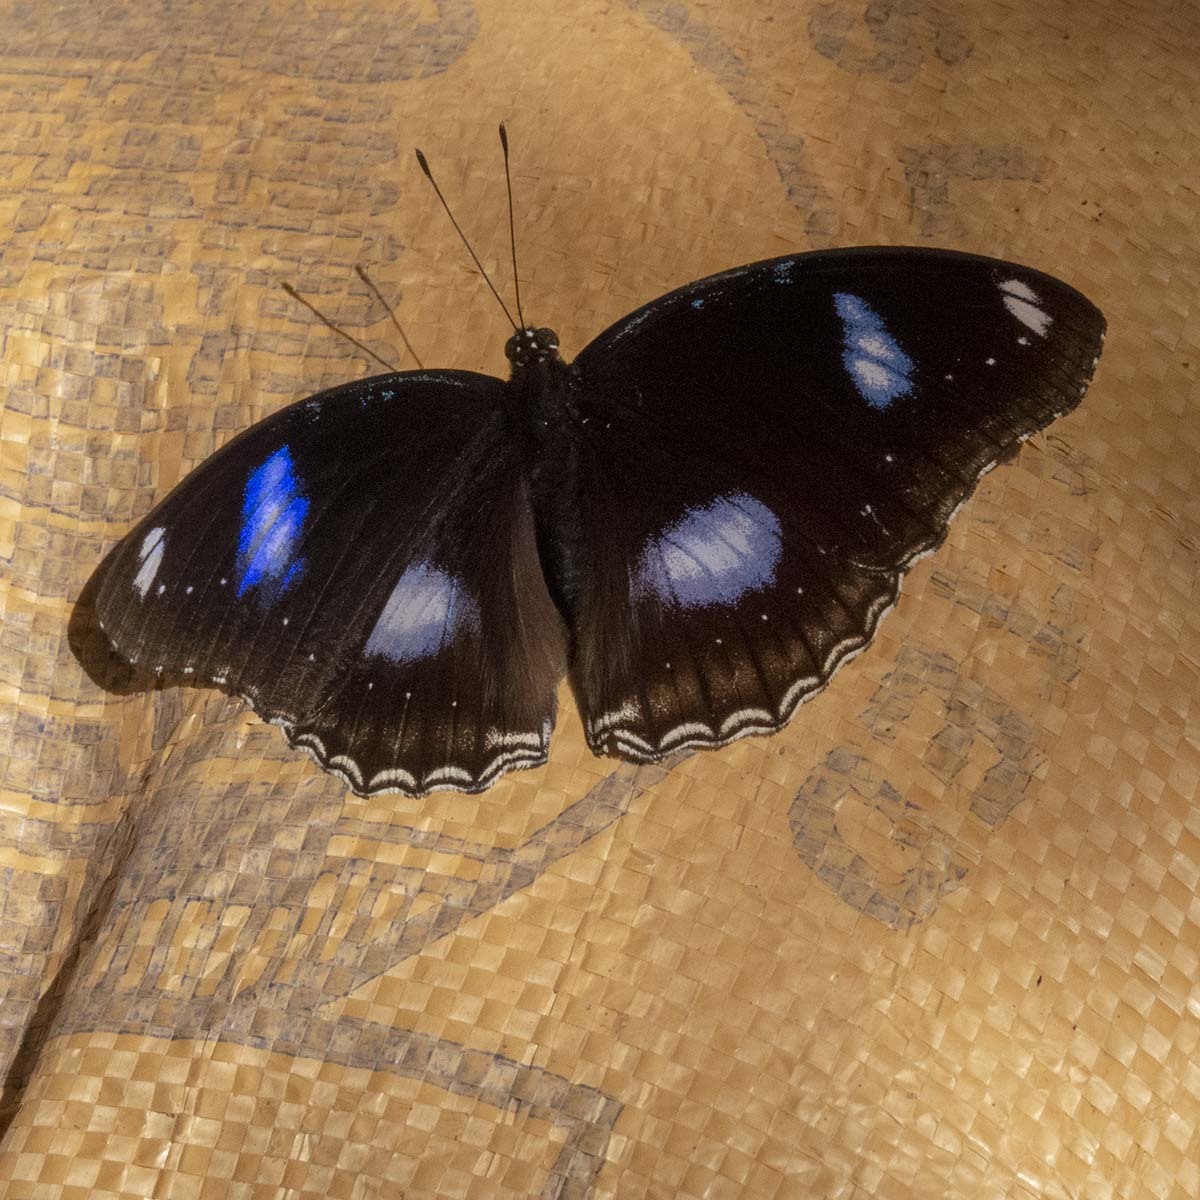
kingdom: Animalia
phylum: Arthropoda
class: Insecta
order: Lepidoptera
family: Nymphalidae
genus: Hypolimnas
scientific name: Hypolimnas bolina
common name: Great eggfly
